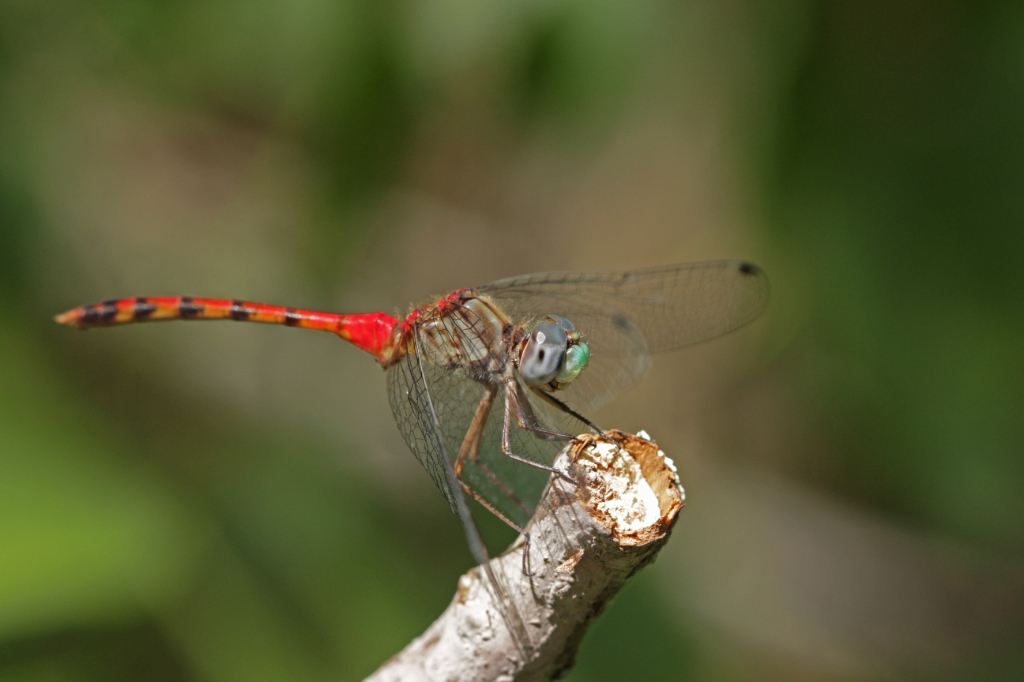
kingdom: Animalia
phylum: Arthropoda
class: Insecta
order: Odonata
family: Libellulidae
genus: Sympetrum
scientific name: Sympetrum ambiguum
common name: Blue-faced meadowhawk
